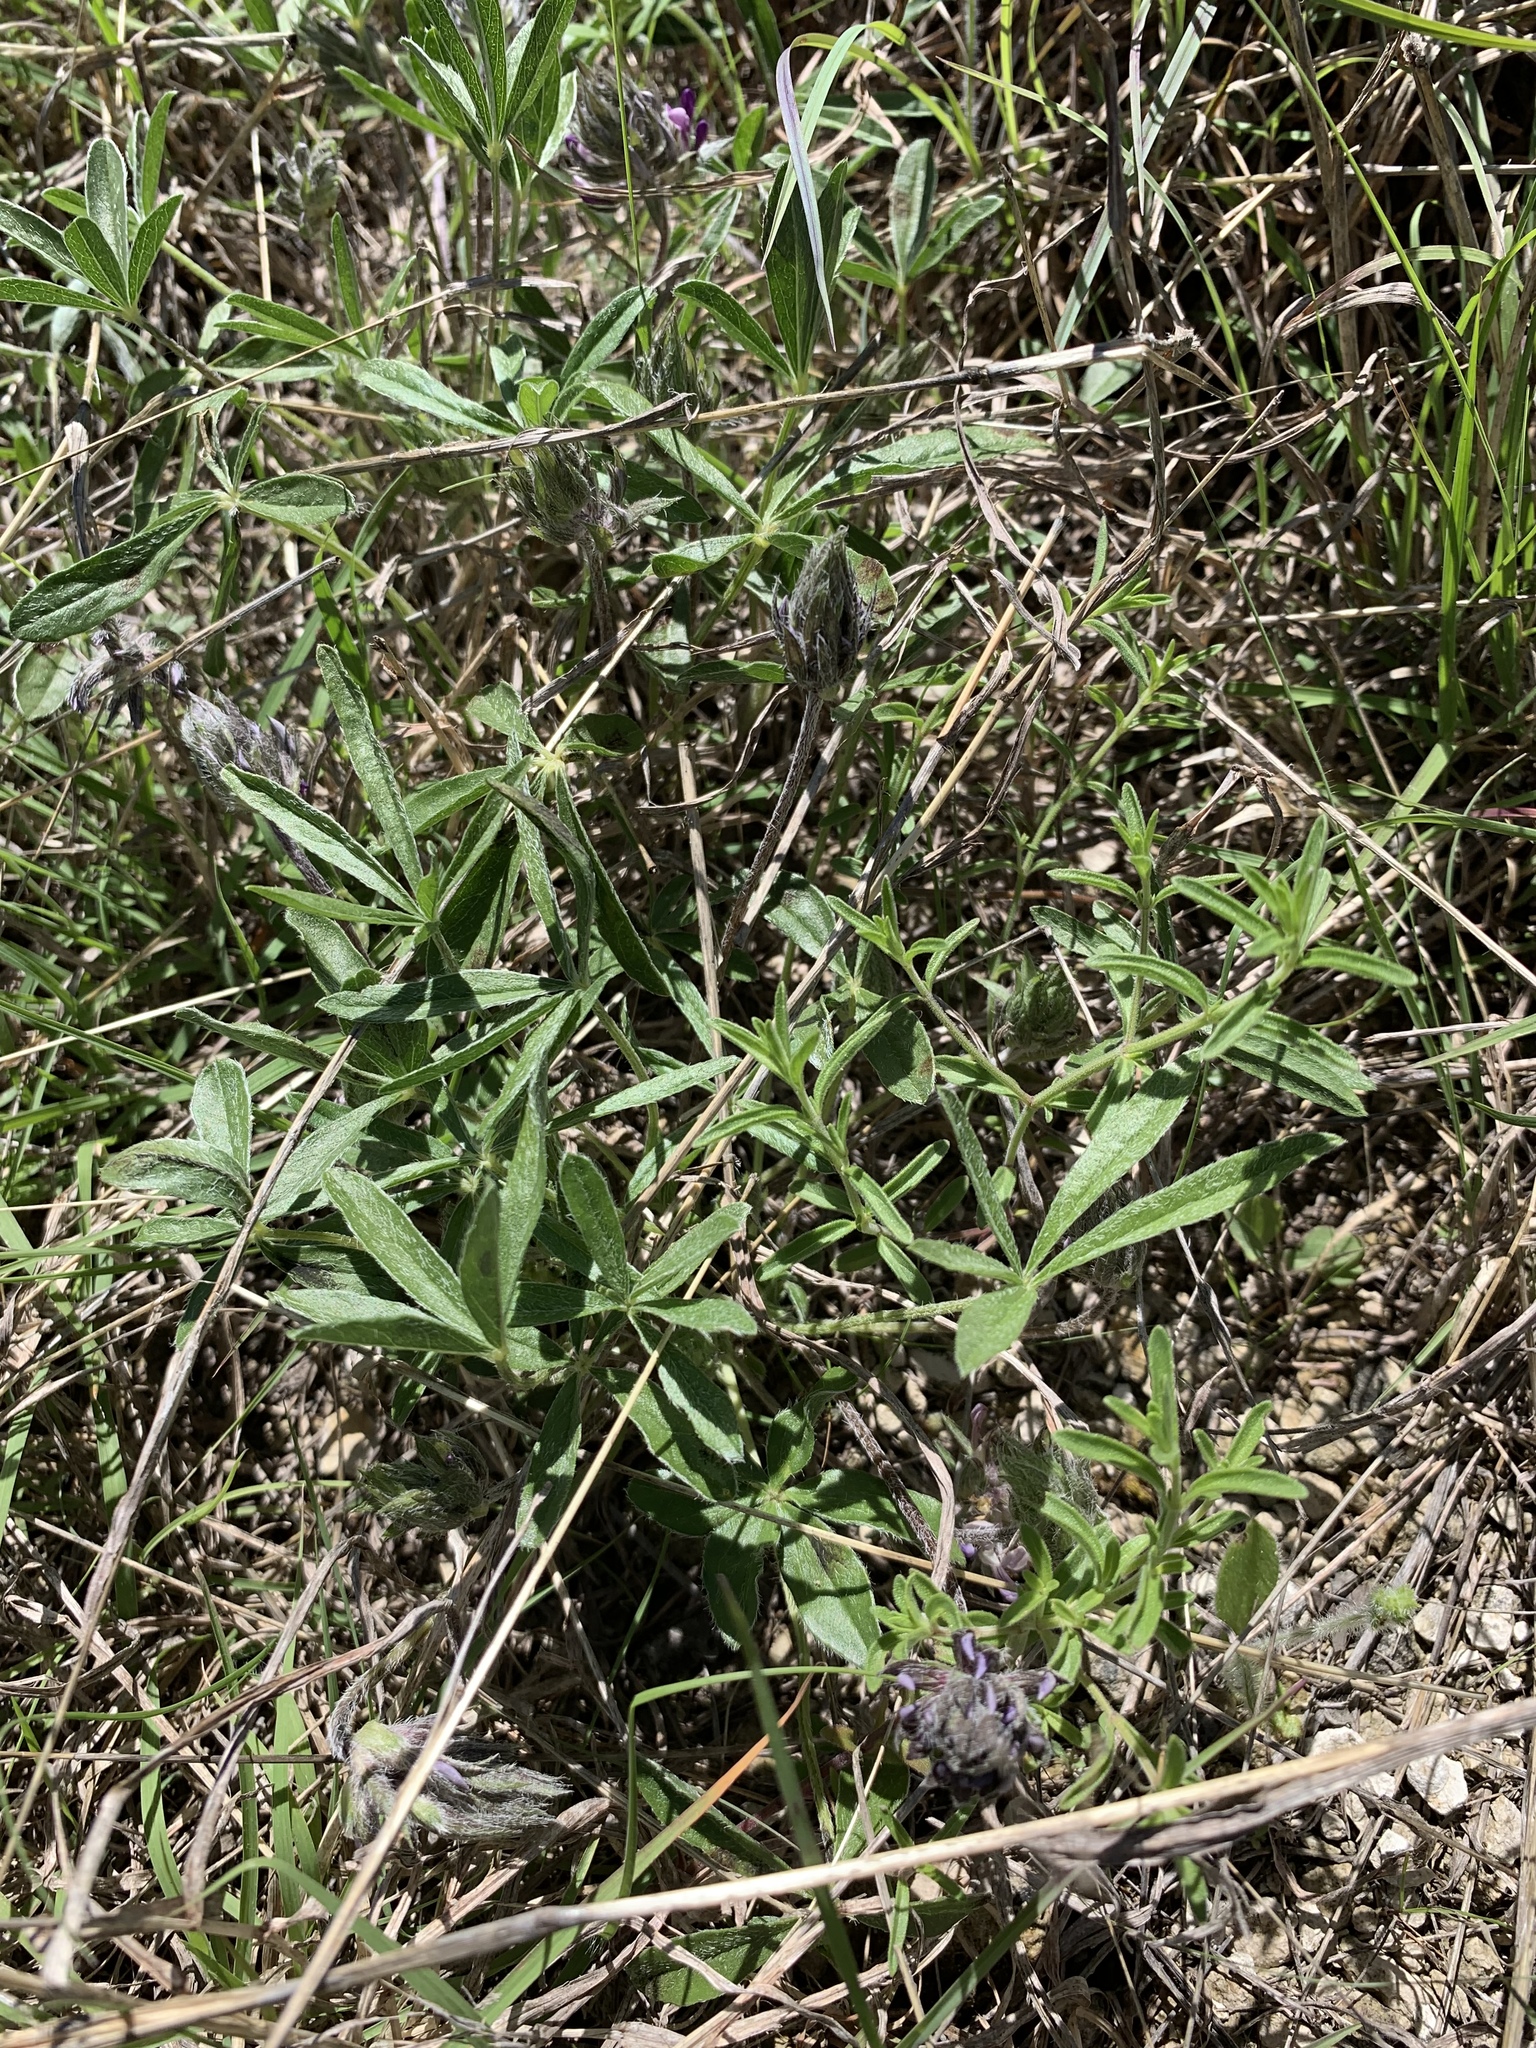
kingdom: Plantae
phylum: Tracheophyta
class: Magnoliopsida
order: Fabales
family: Fabaceae
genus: Pediomelum
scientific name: Pediomelum hypogaeum
